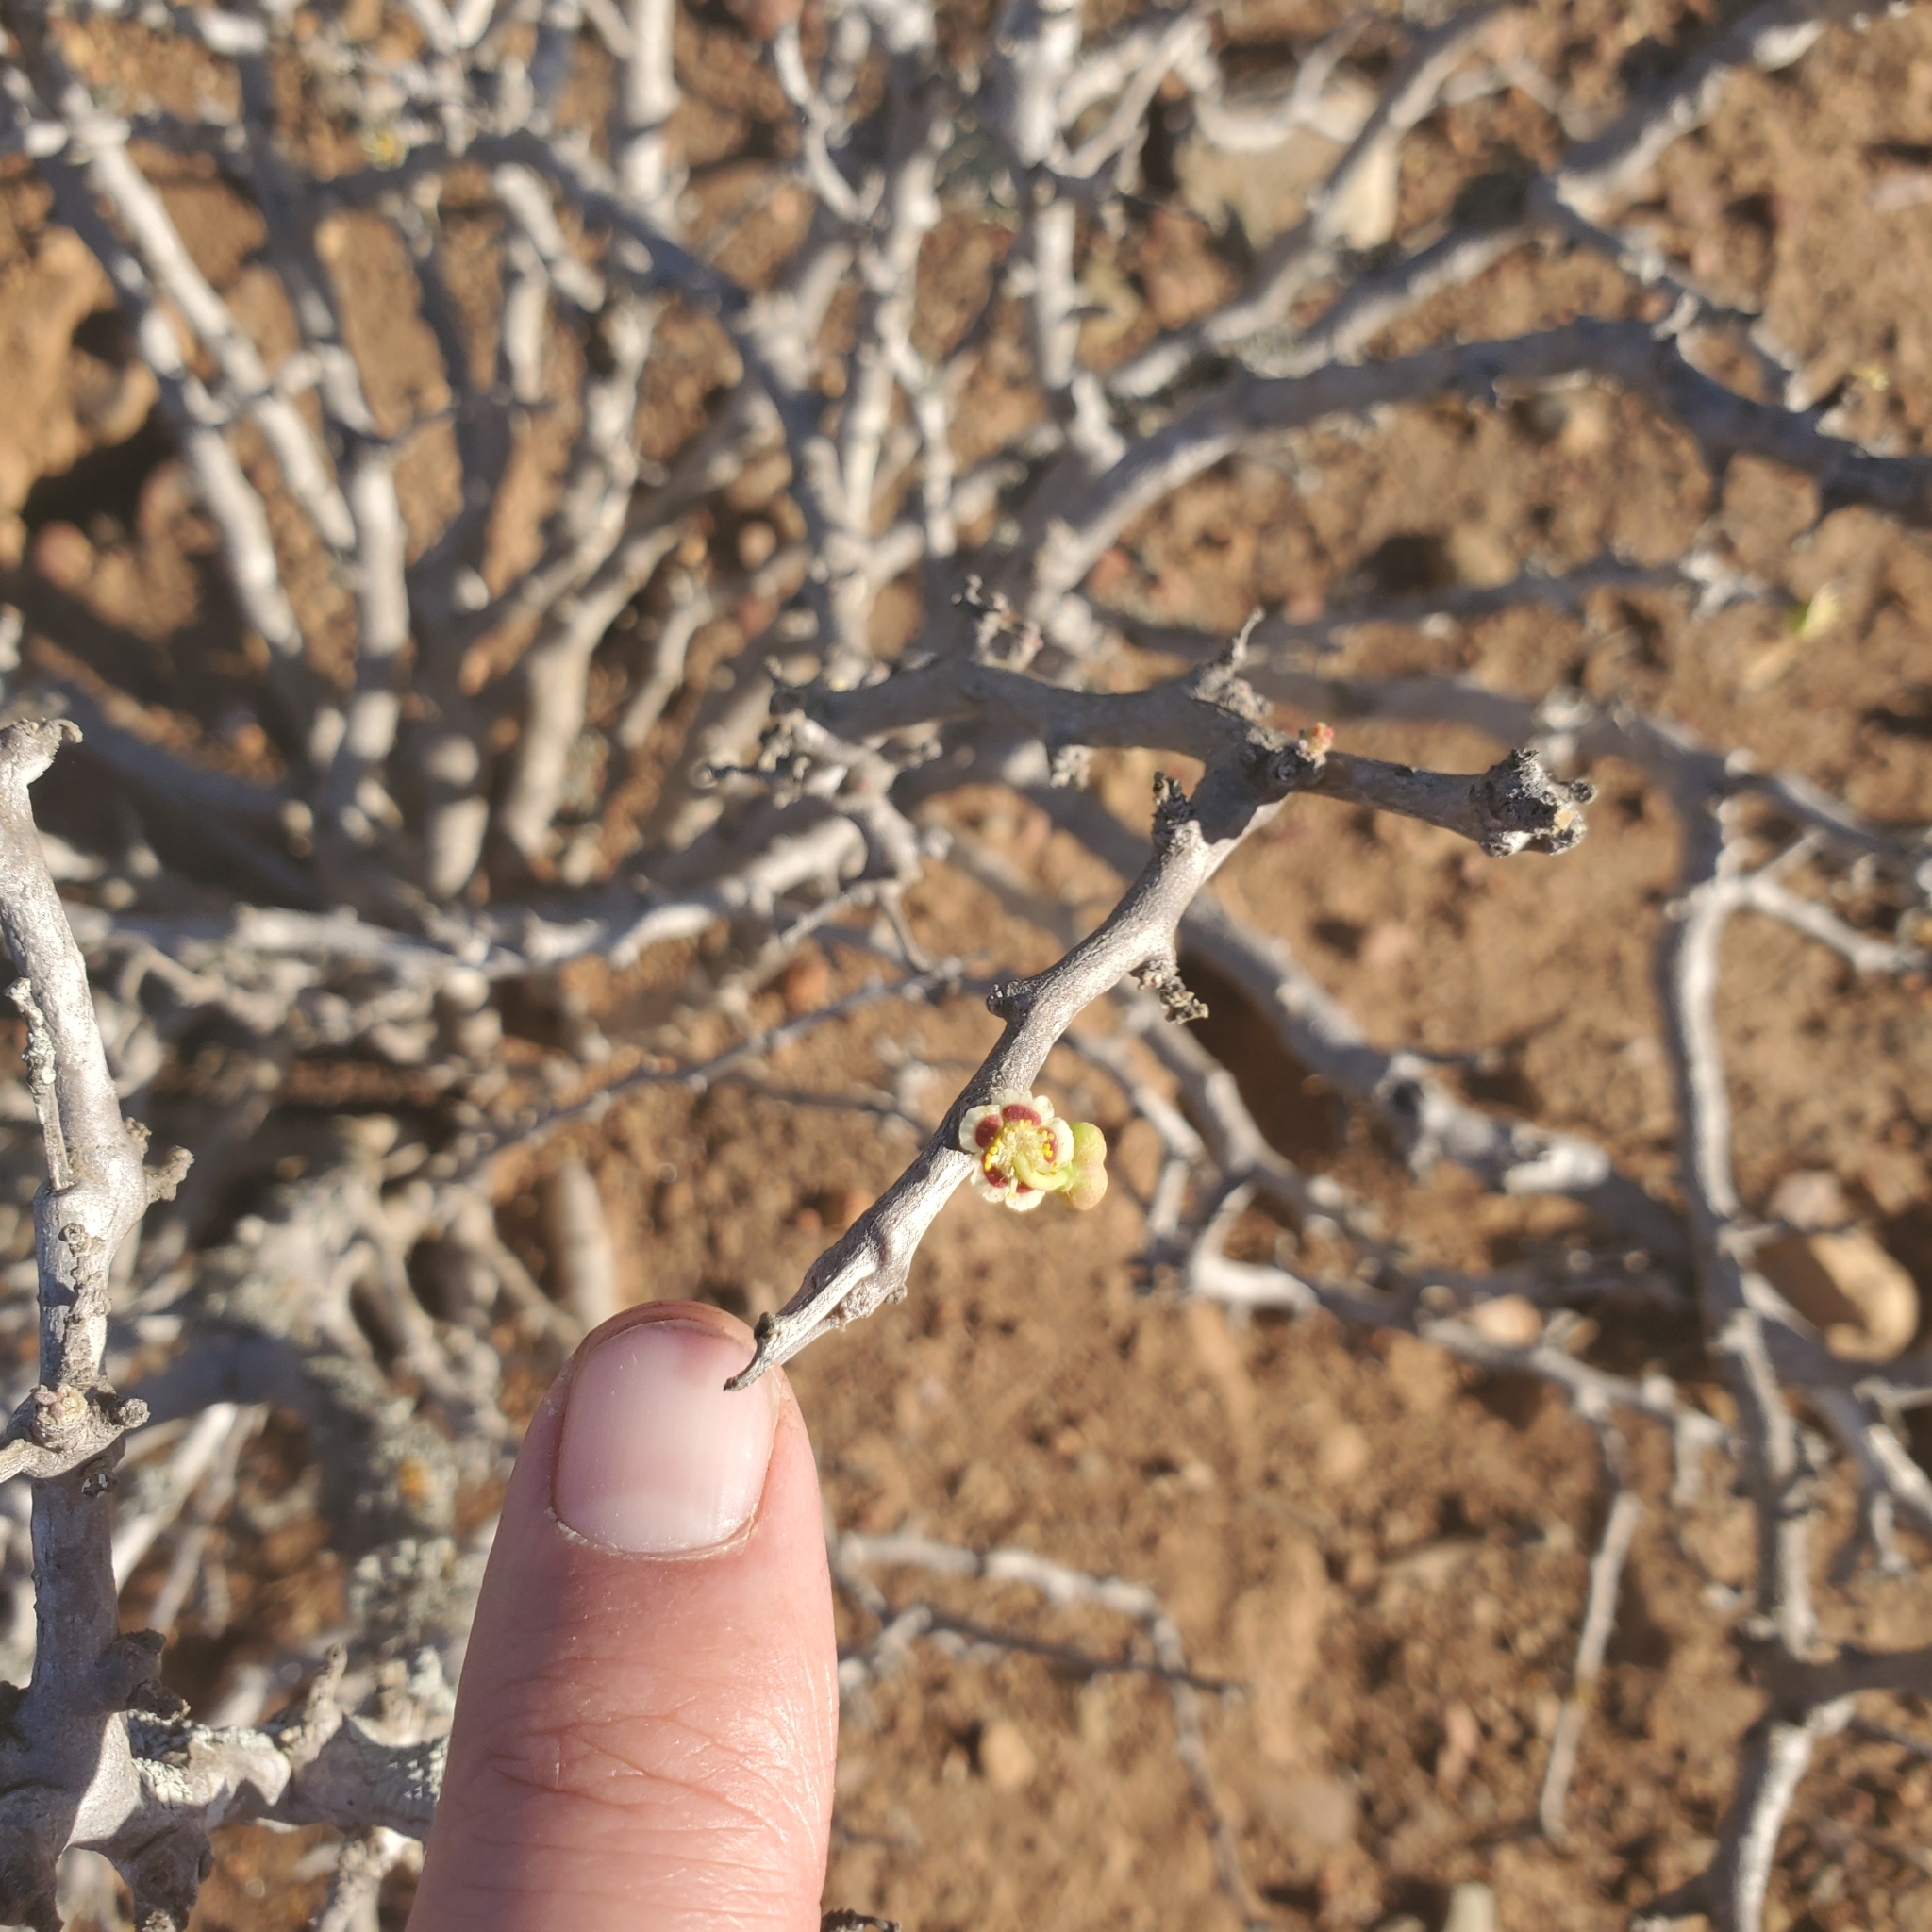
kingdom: Plantae
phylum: Tracheophyta
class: Magnoliopsida
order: Malpighiales
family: Euphorbiaceae
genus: Euphorbia
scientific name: Euphorbia misera
